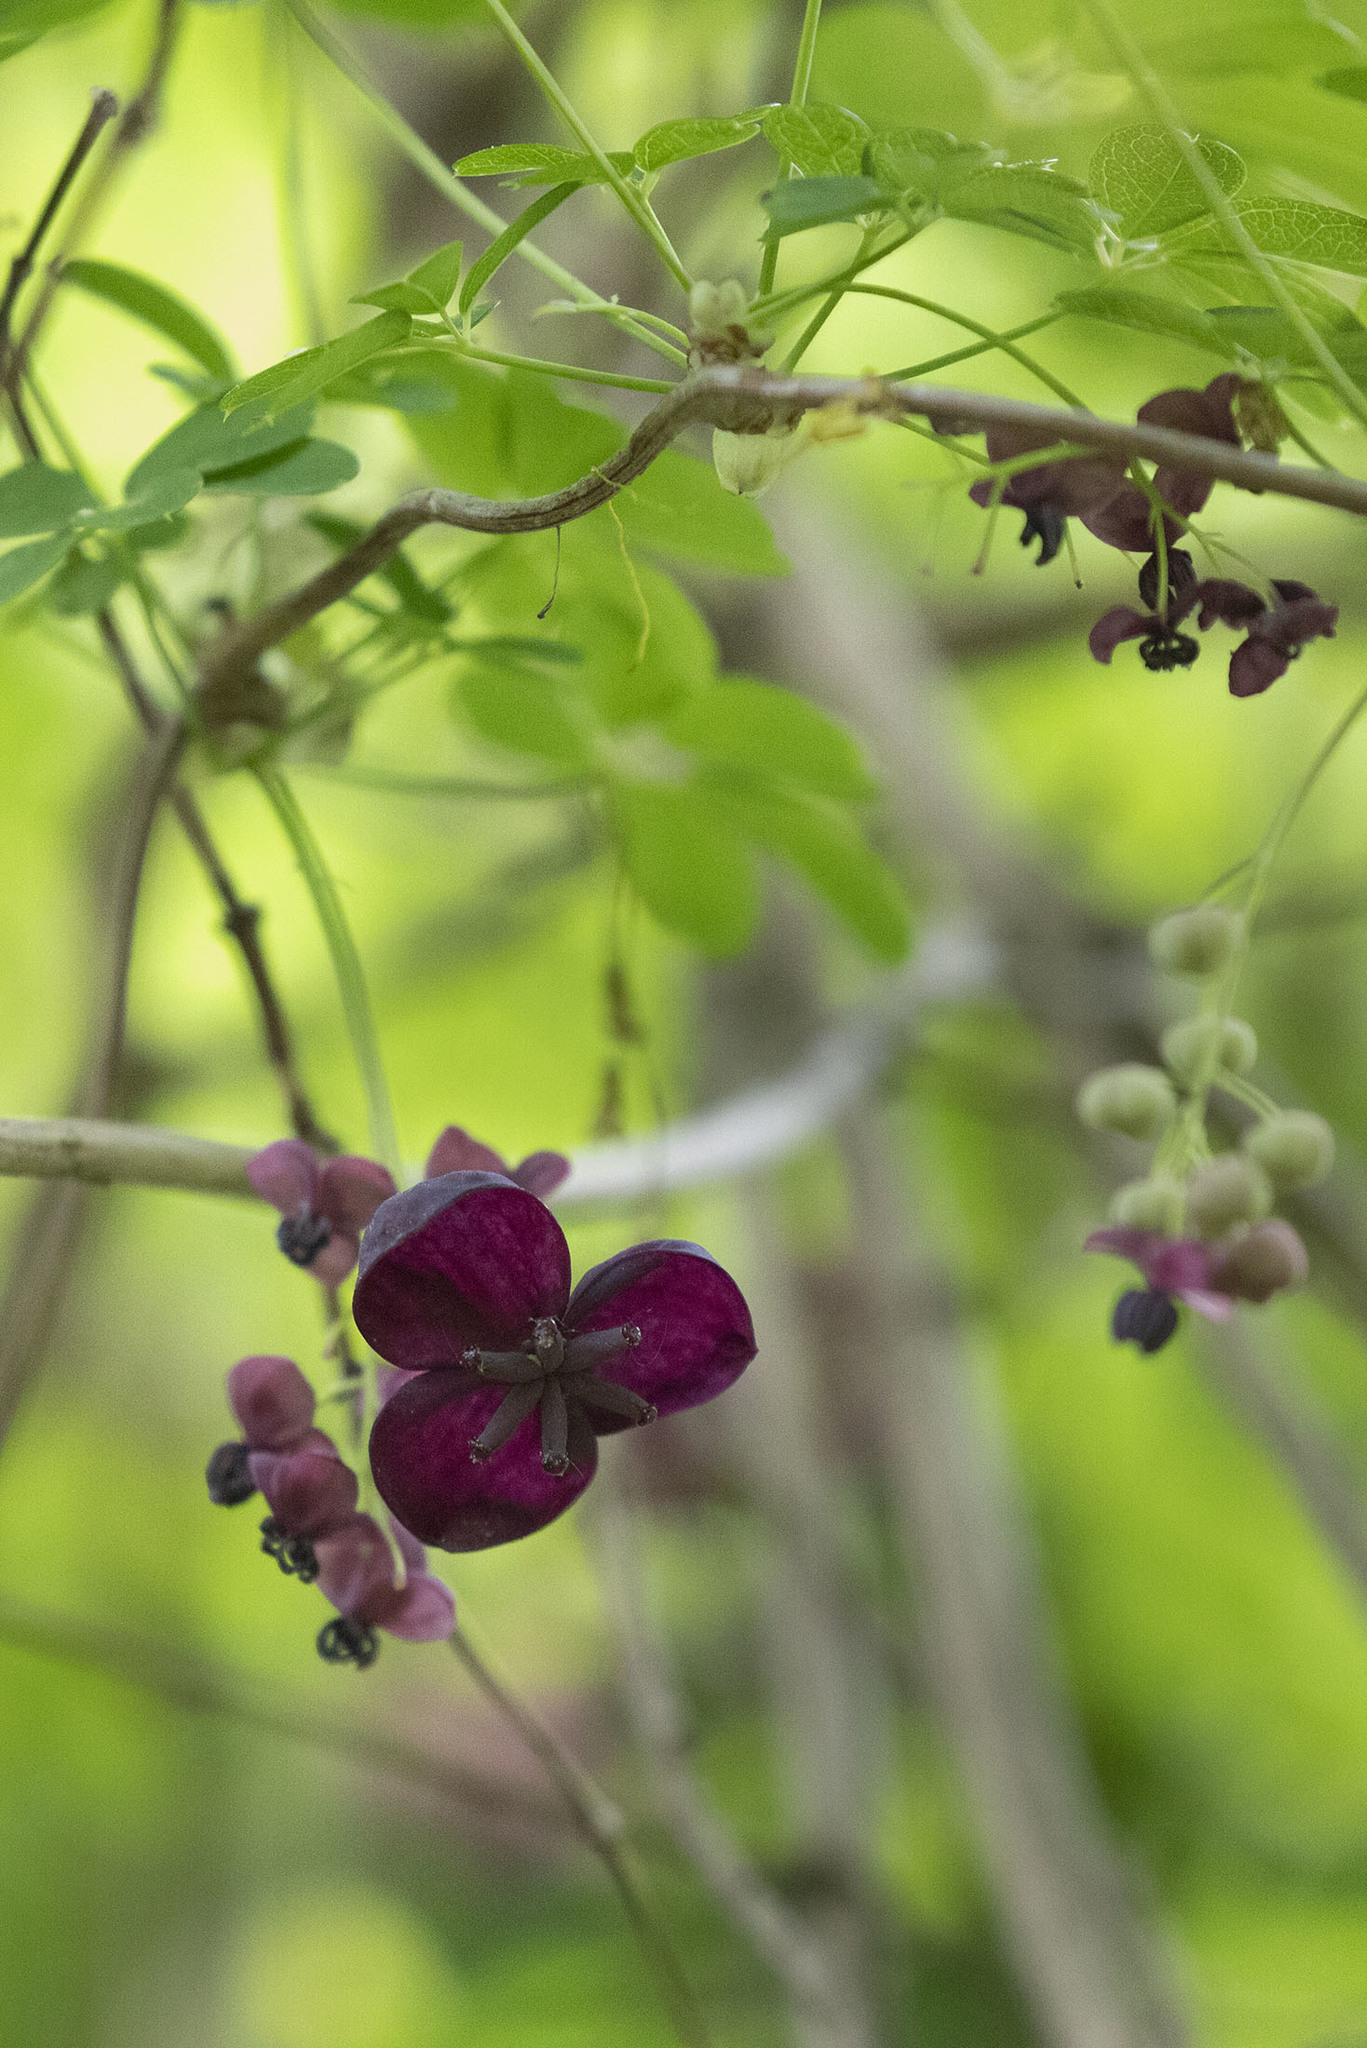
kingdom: Plantae
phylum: Tracheophyta
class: Magnoliopsida
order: Ranunculales
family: Lardizabalaceae
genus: Akebia
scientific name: Akebia quinata
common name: Five-leaf akebia
